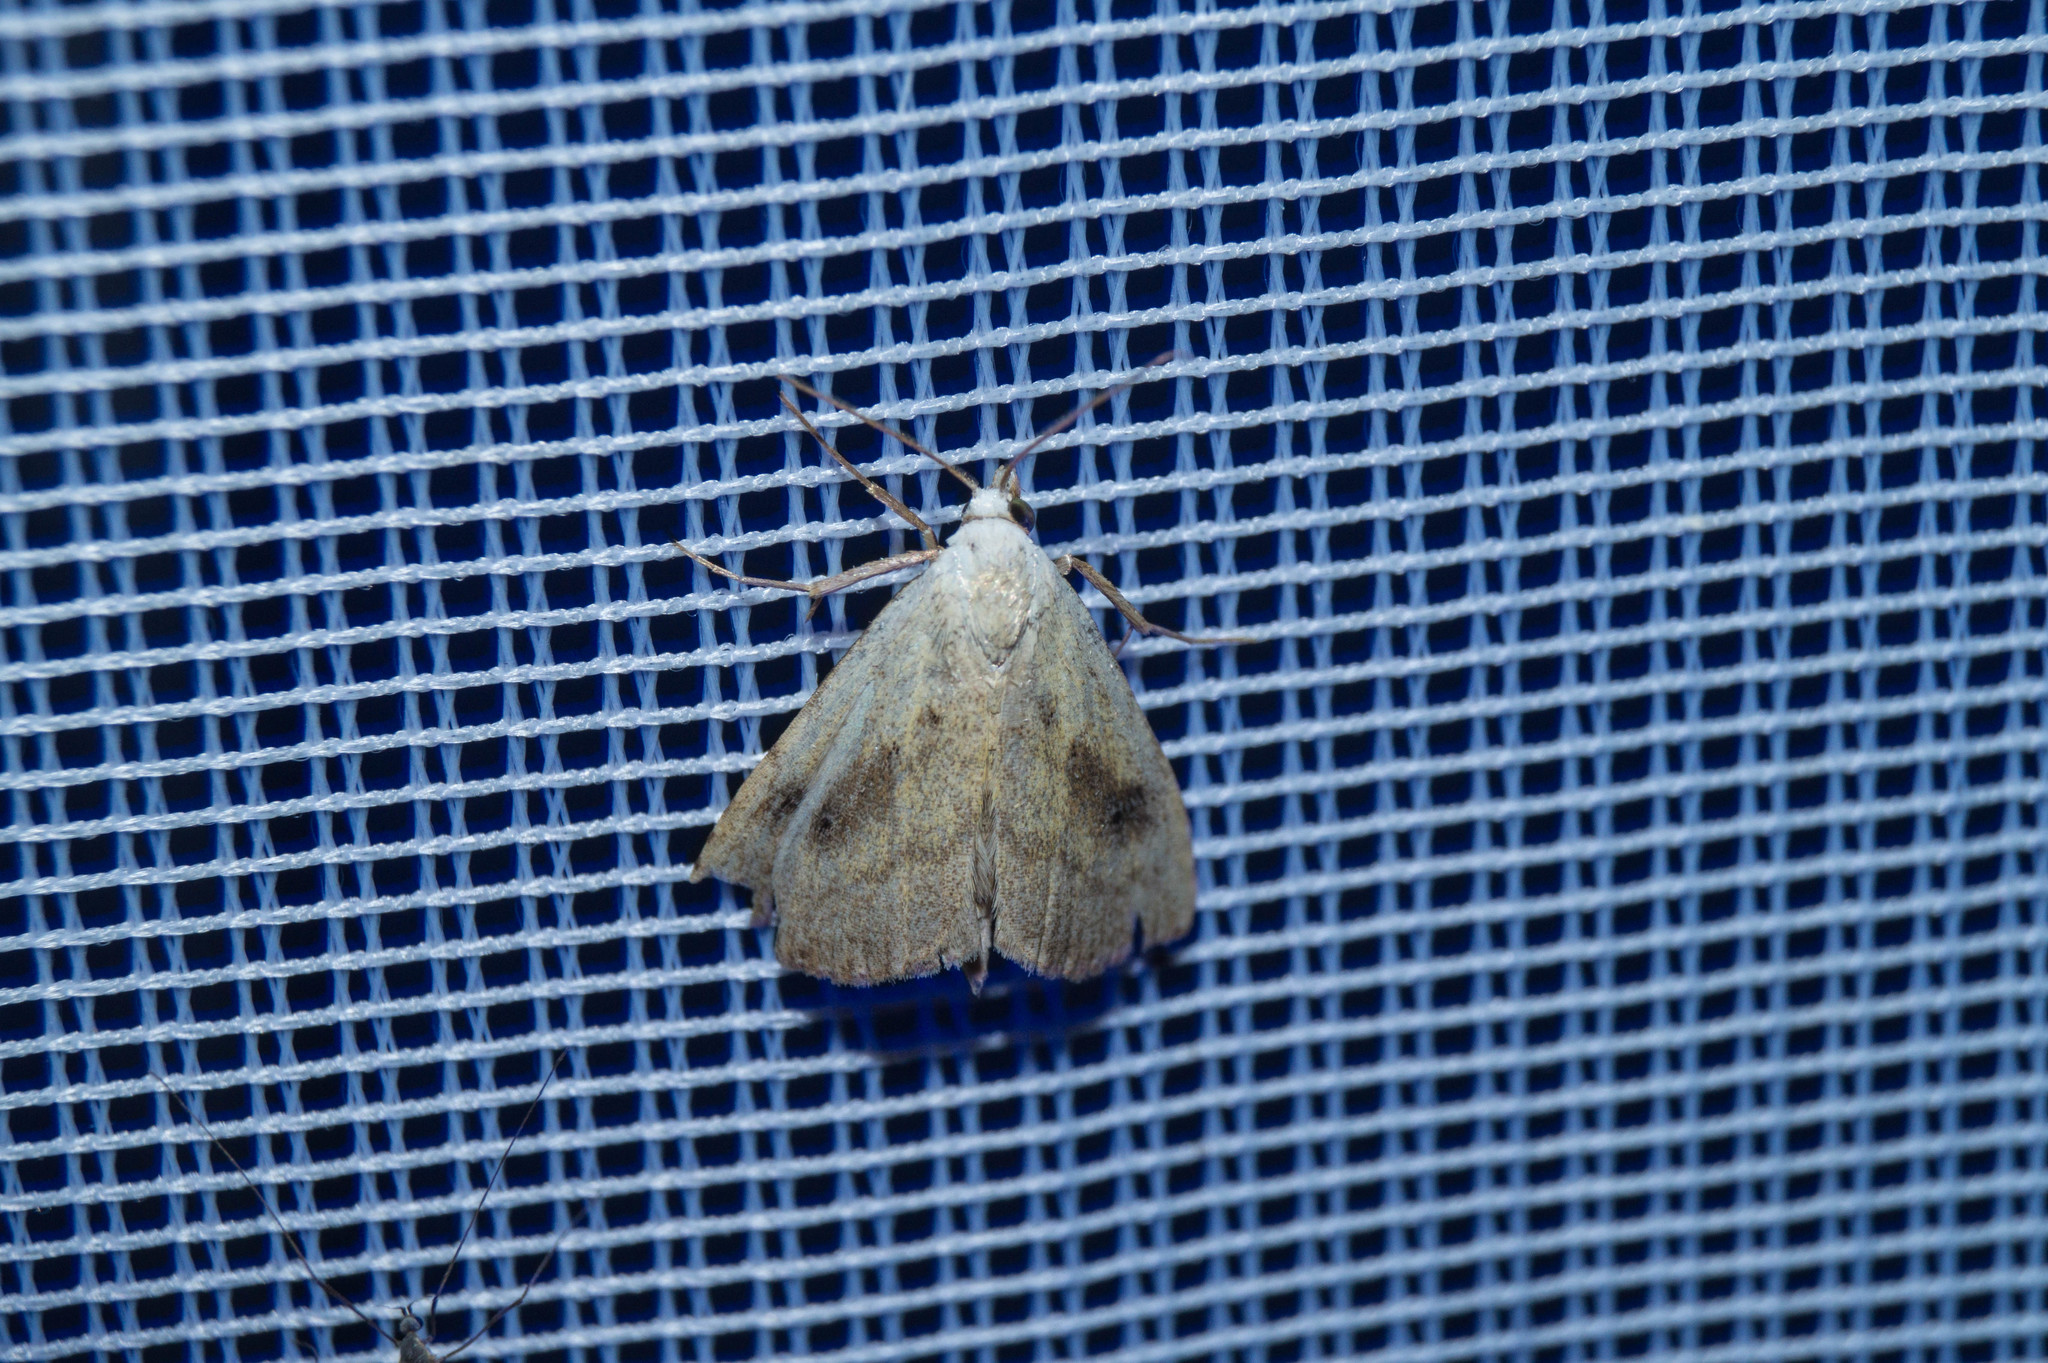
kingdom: Animalia
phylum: Arthropoda
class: Insecta
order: Lepidoptera
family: Erebidae
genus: Rivula
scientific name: Rivula sericealis
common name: Straw dot
